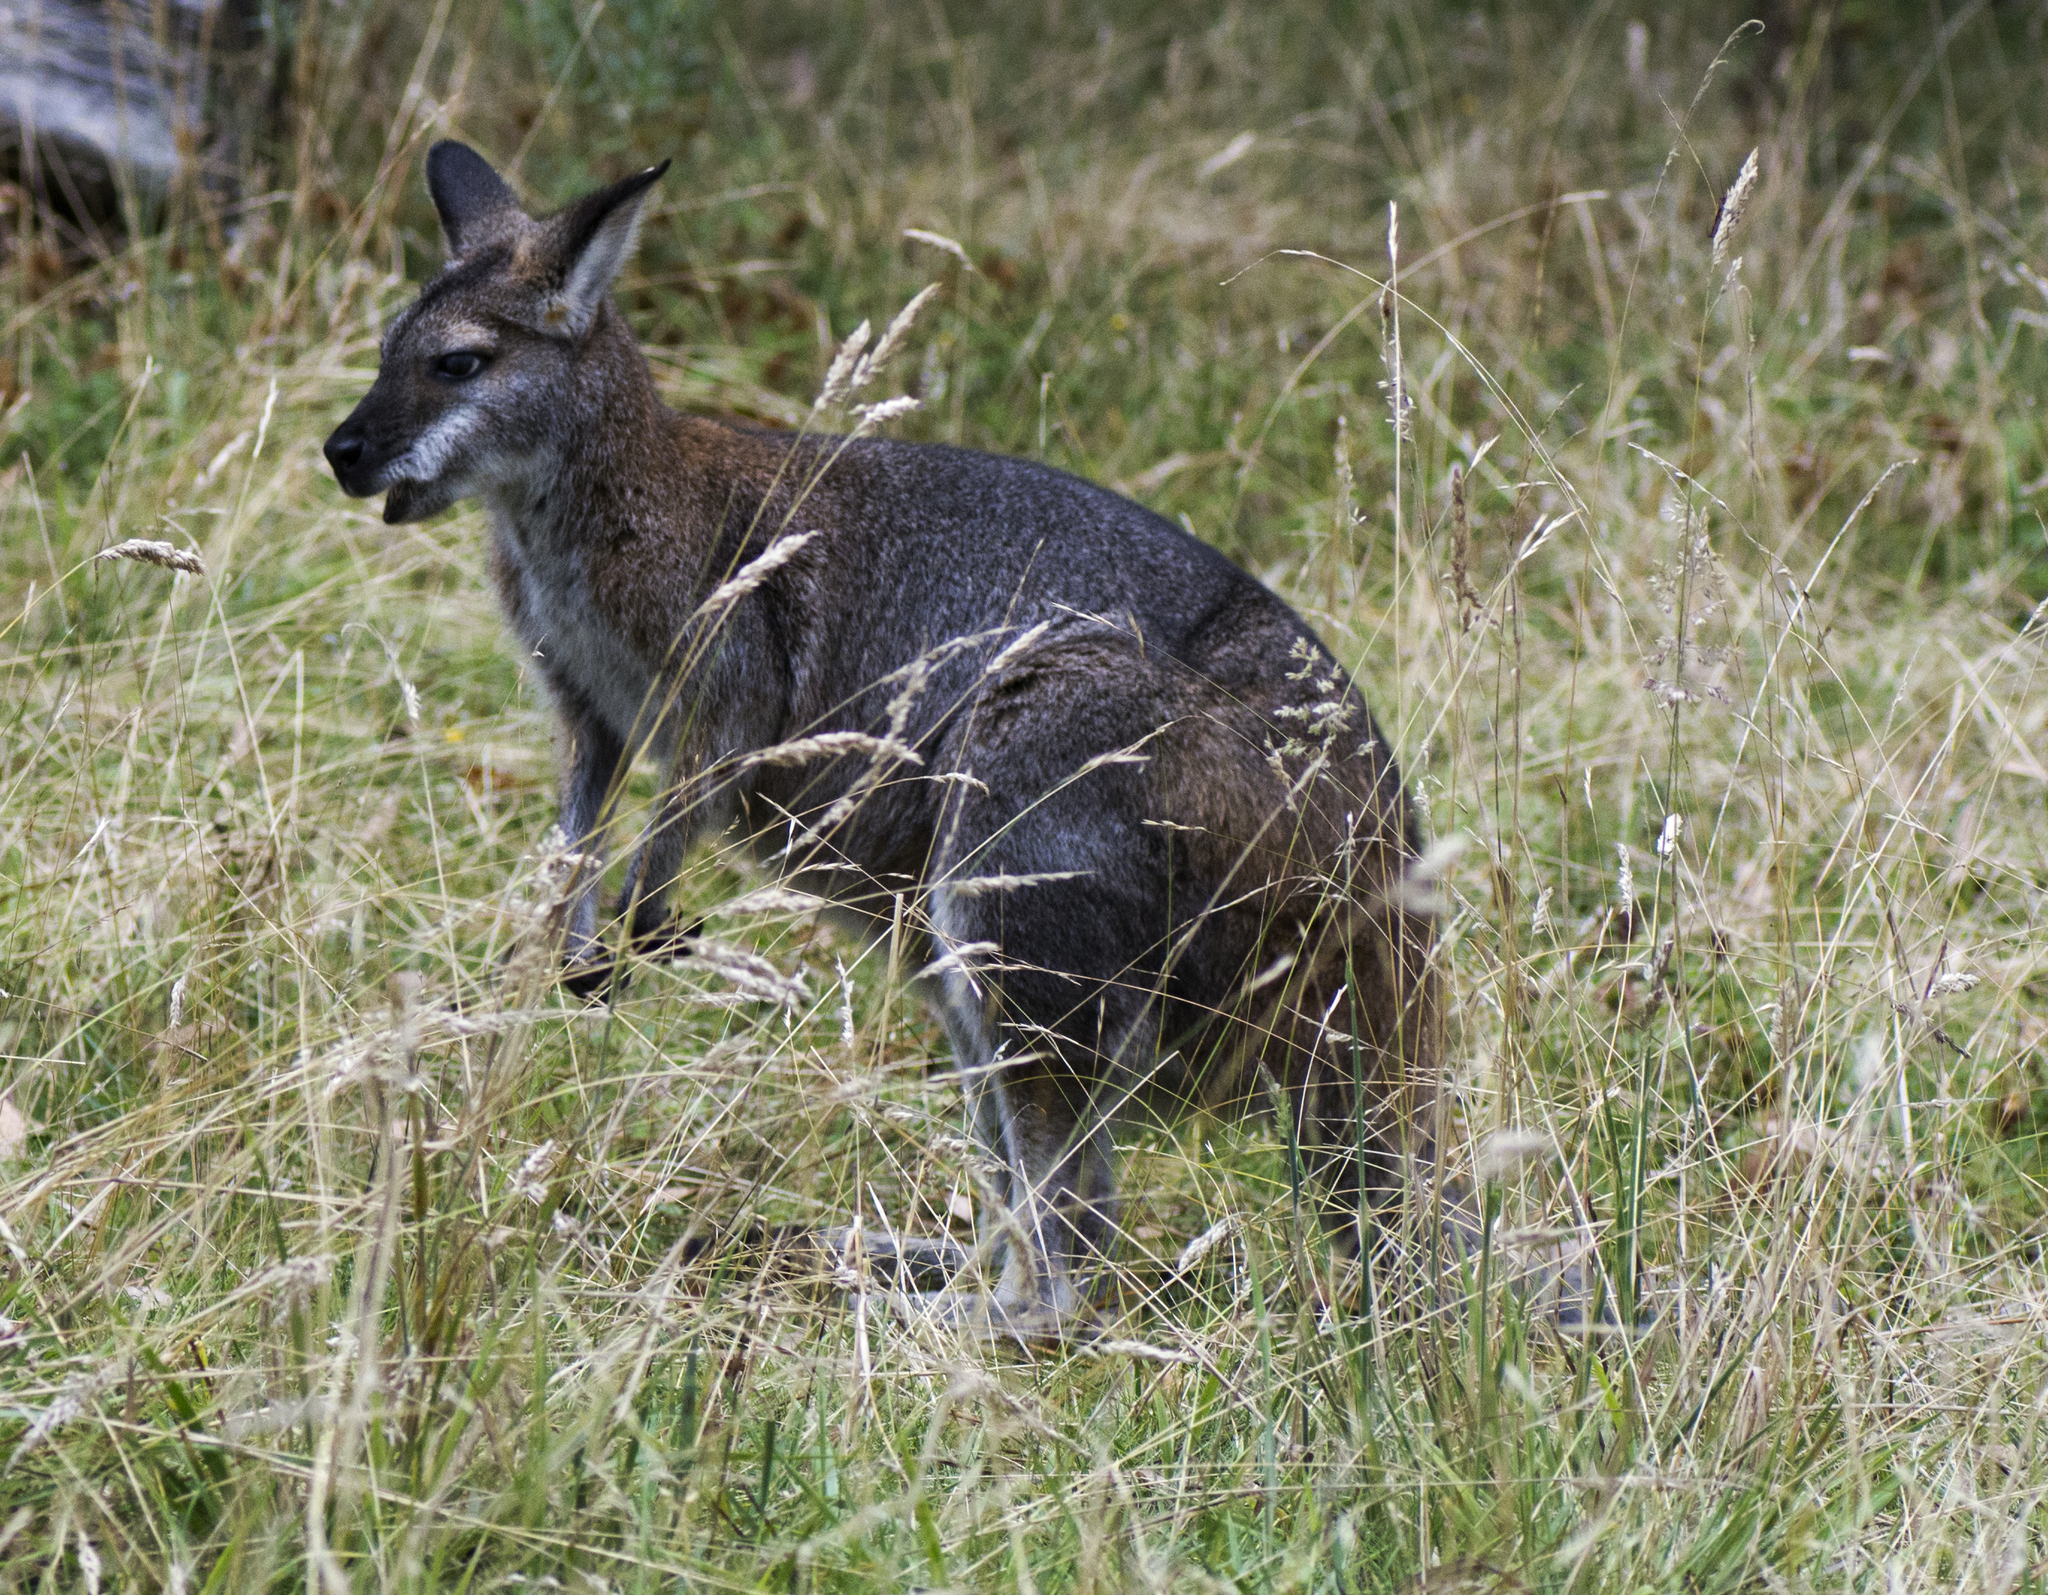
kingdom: Animalia
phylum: Chordata
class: Mammalia
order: Diprotodontia
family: Macropodidae
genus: Notamacropus
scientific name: Notamacropus rufogriseus
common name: Red-necked wallaby
